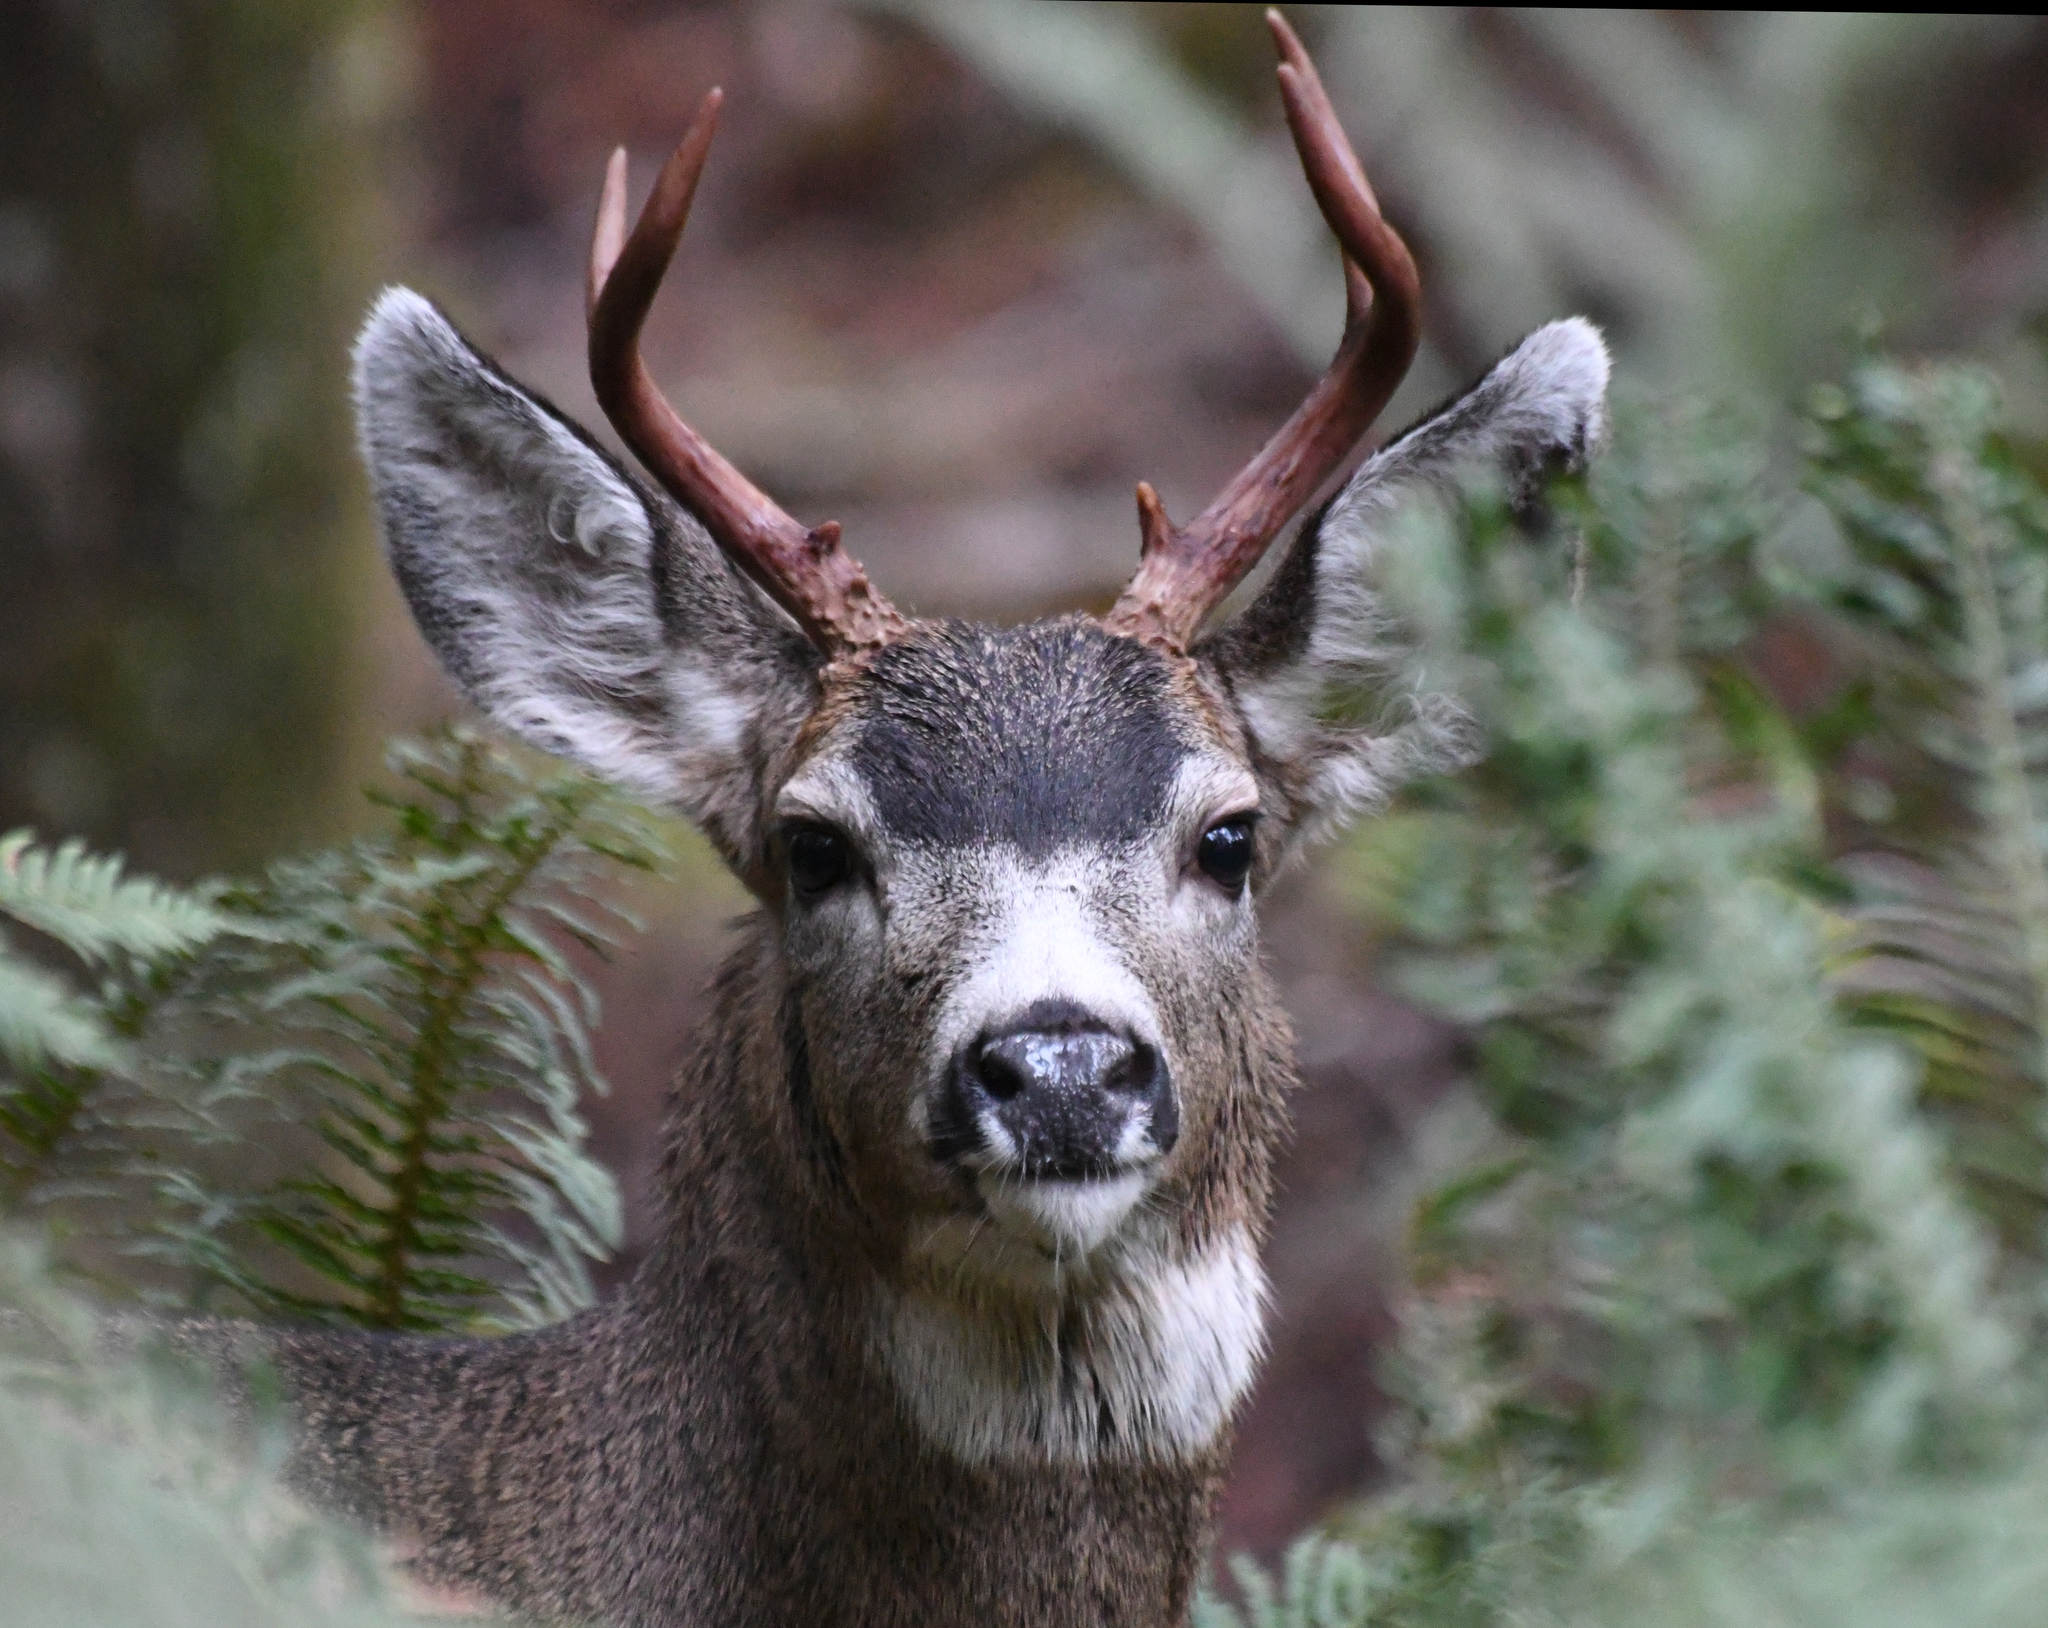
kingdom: Animalia
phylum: Chordata
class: Mammalia
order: Artiodactyla
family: Cervidae
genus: Odocoileus
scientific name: Odocoileus hemionus
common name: Mule deer
